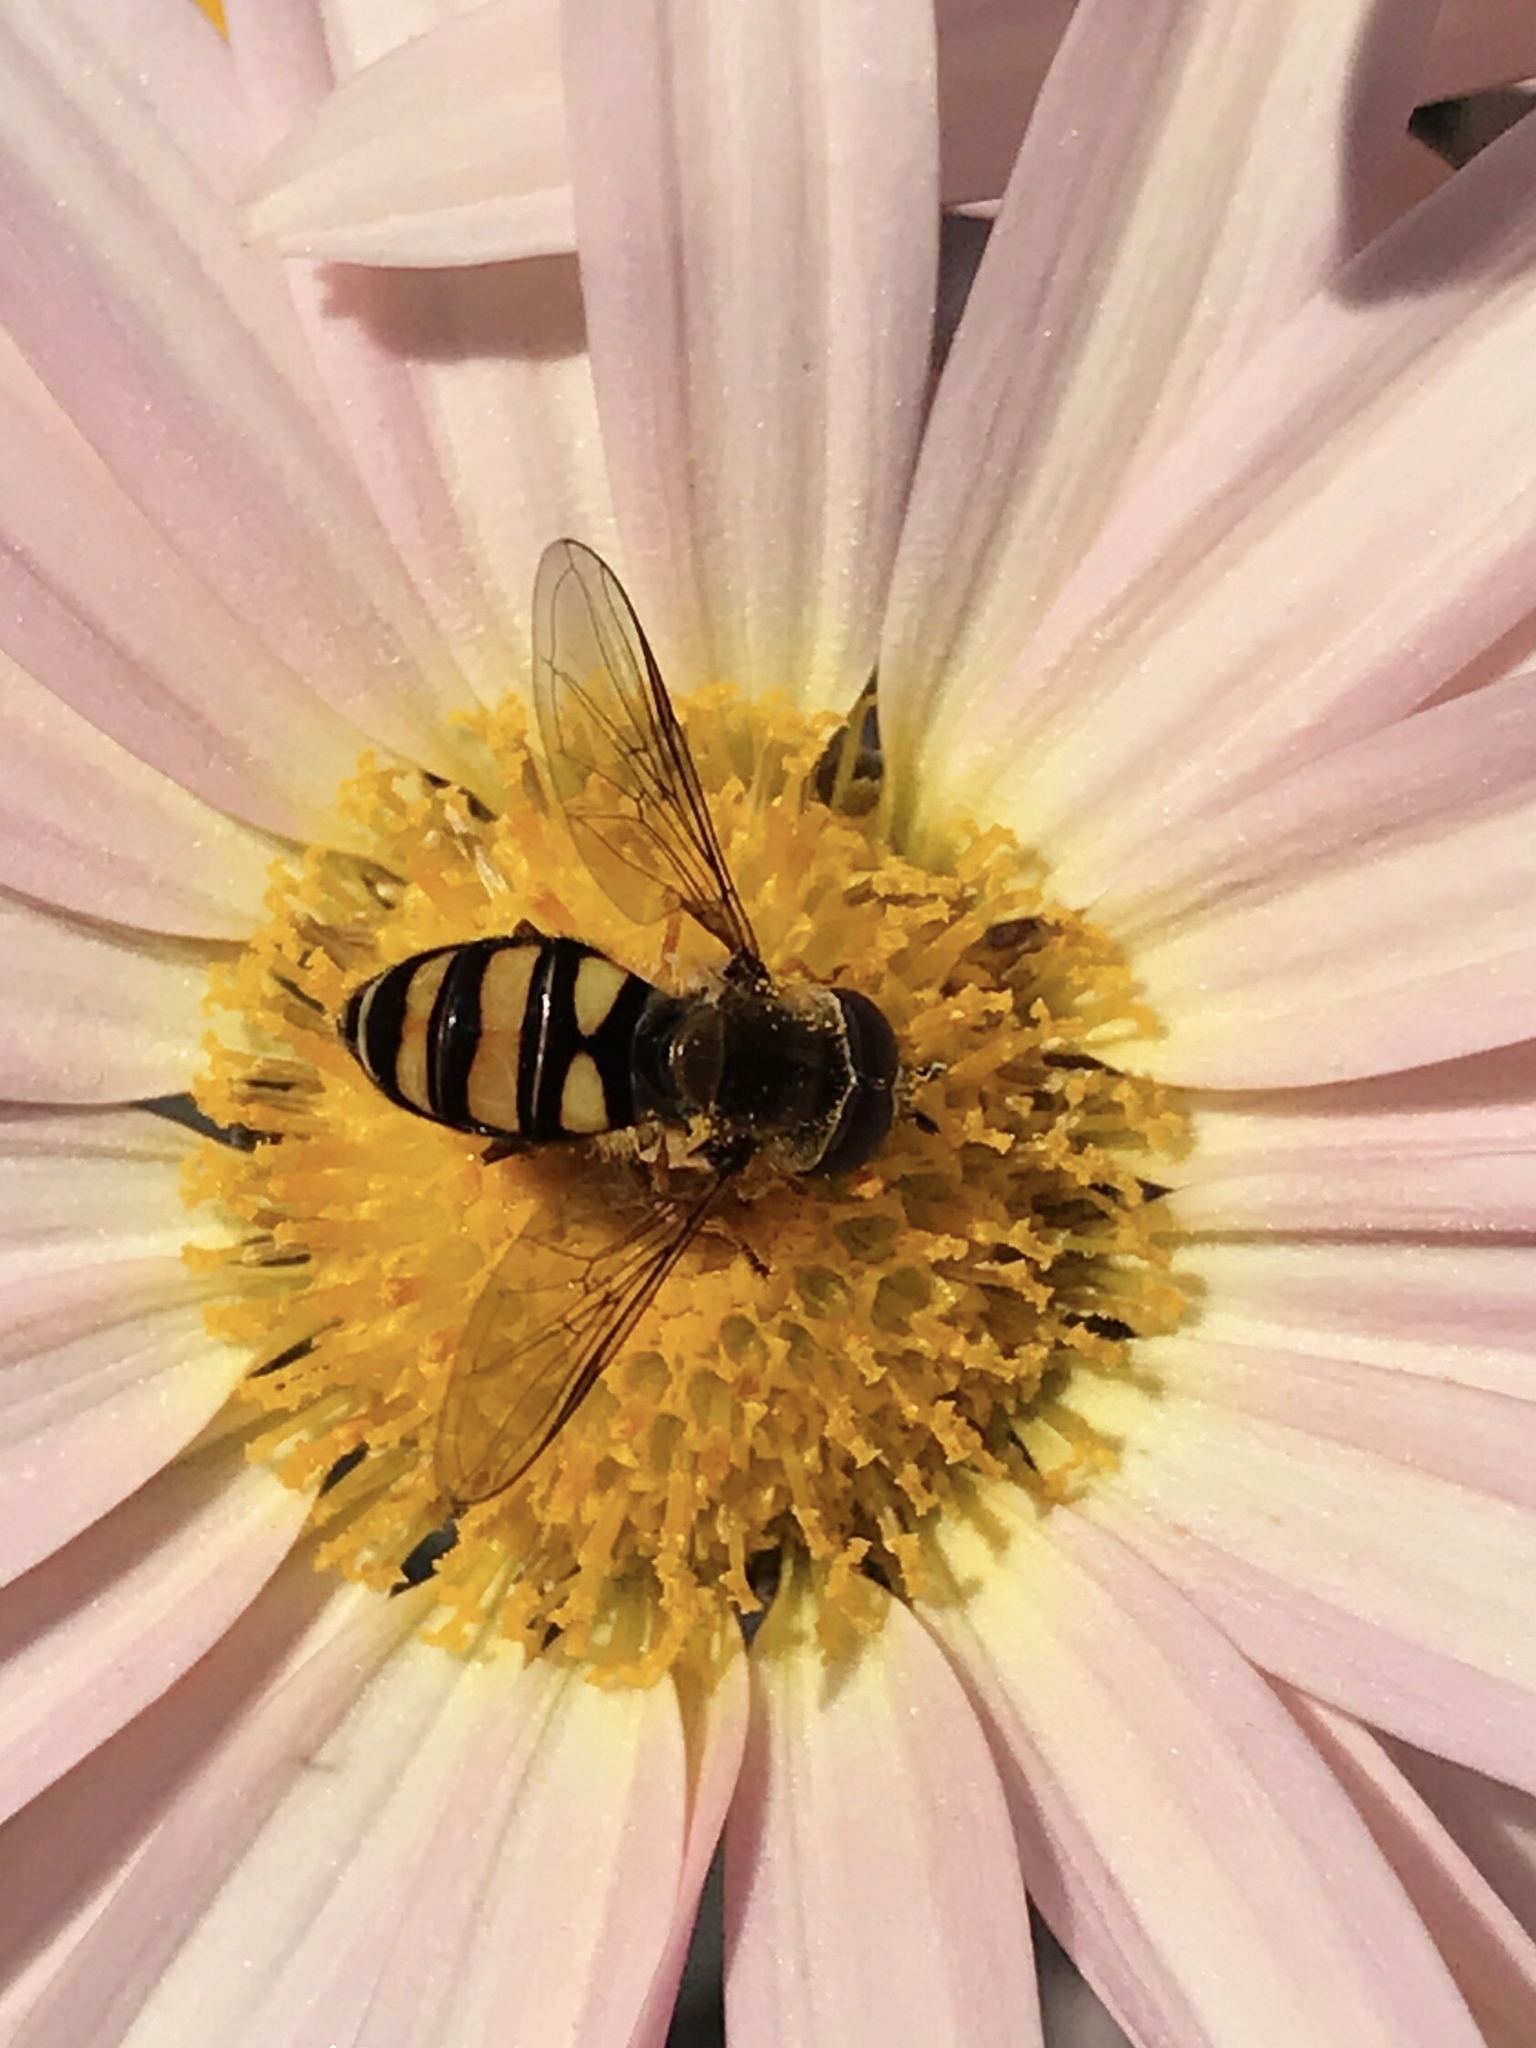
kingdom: Animalia
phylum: Arthropoda
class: Insecta
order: Diptera
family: Syrphidae
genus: Eupeodes
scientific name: Eupeodes
